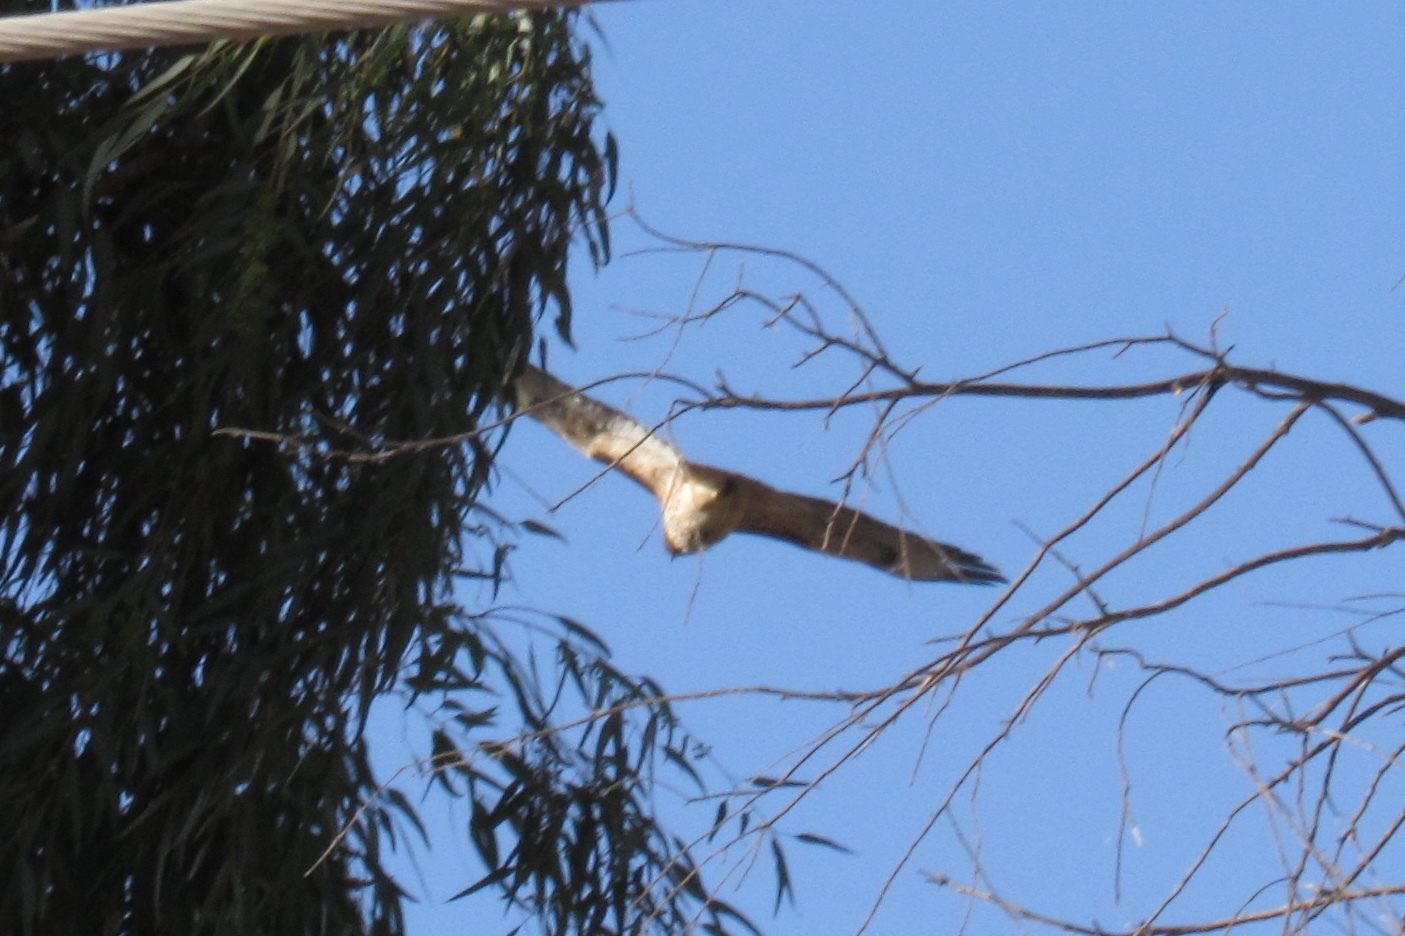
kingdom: Animalia
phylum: Chordata
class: Aves
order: Accipitriformes
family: Accipitridae
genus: Buteo
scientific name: Buteo jamaicensis
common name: Red-tailed hawk
